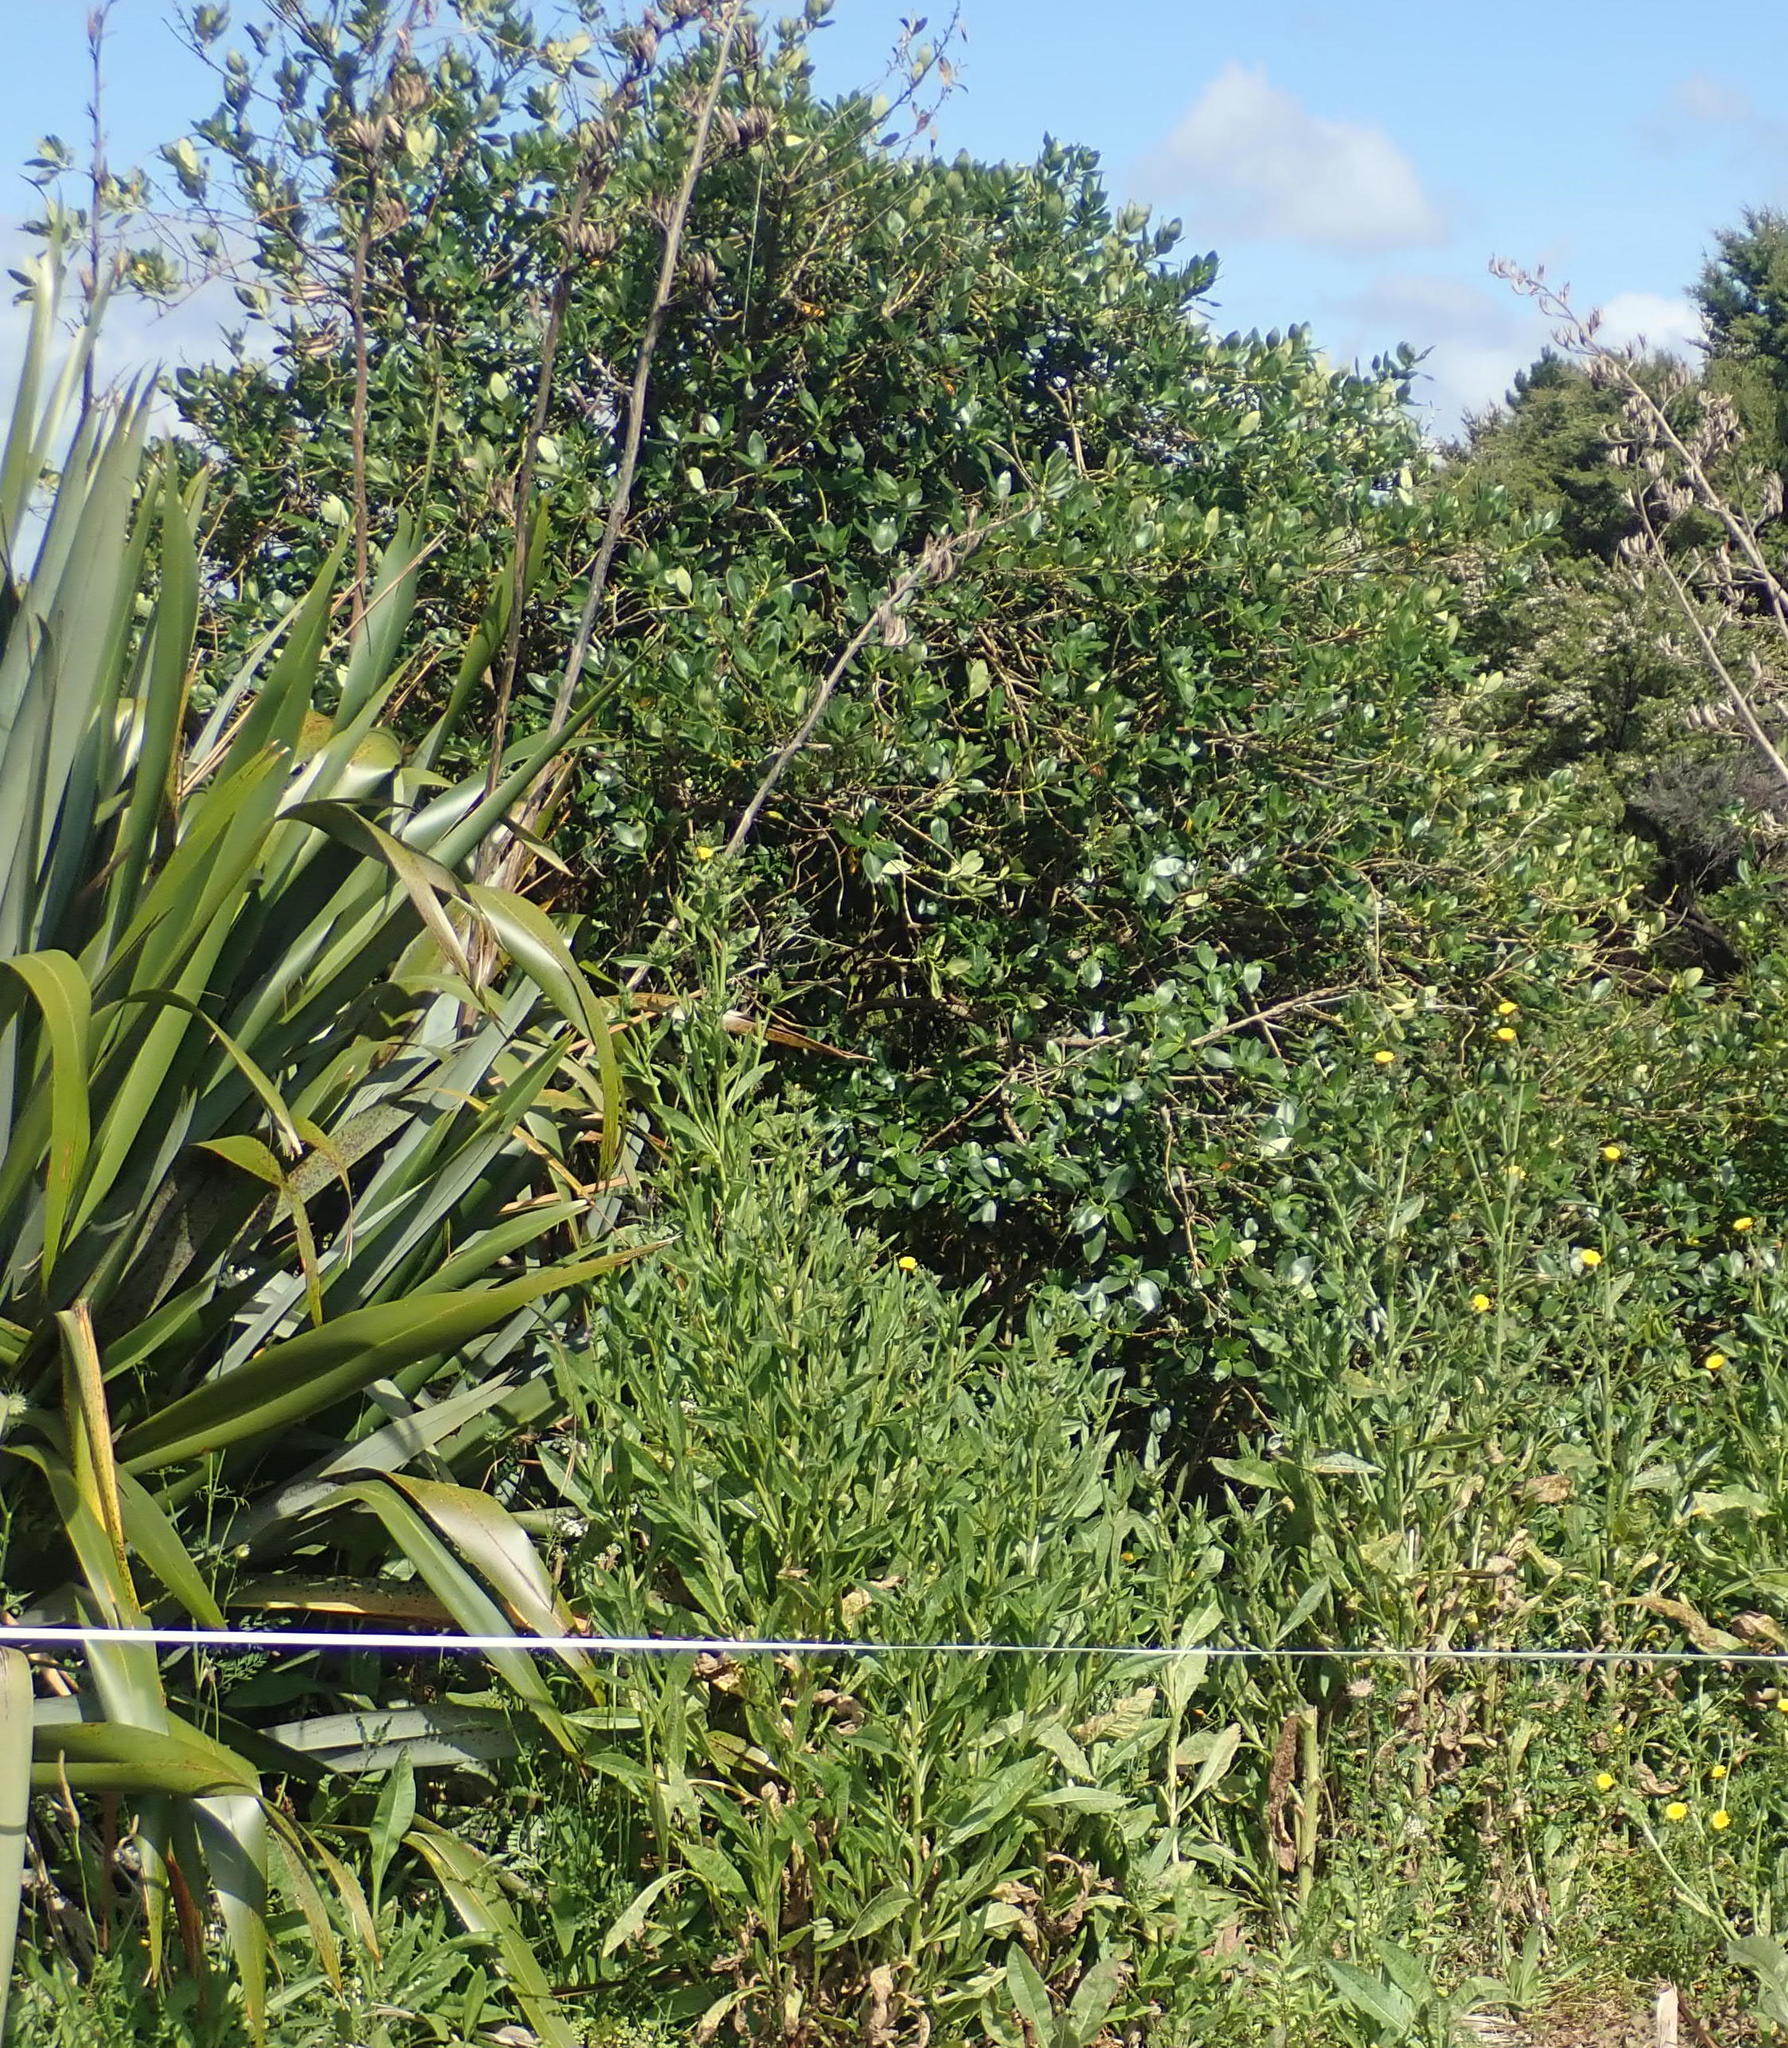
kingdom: Plantae
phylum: Tracheophyta
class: Magnoliopsida
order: Gentianales
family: Rubiaceae
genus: Coprosma
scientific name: Coprosma robusta
